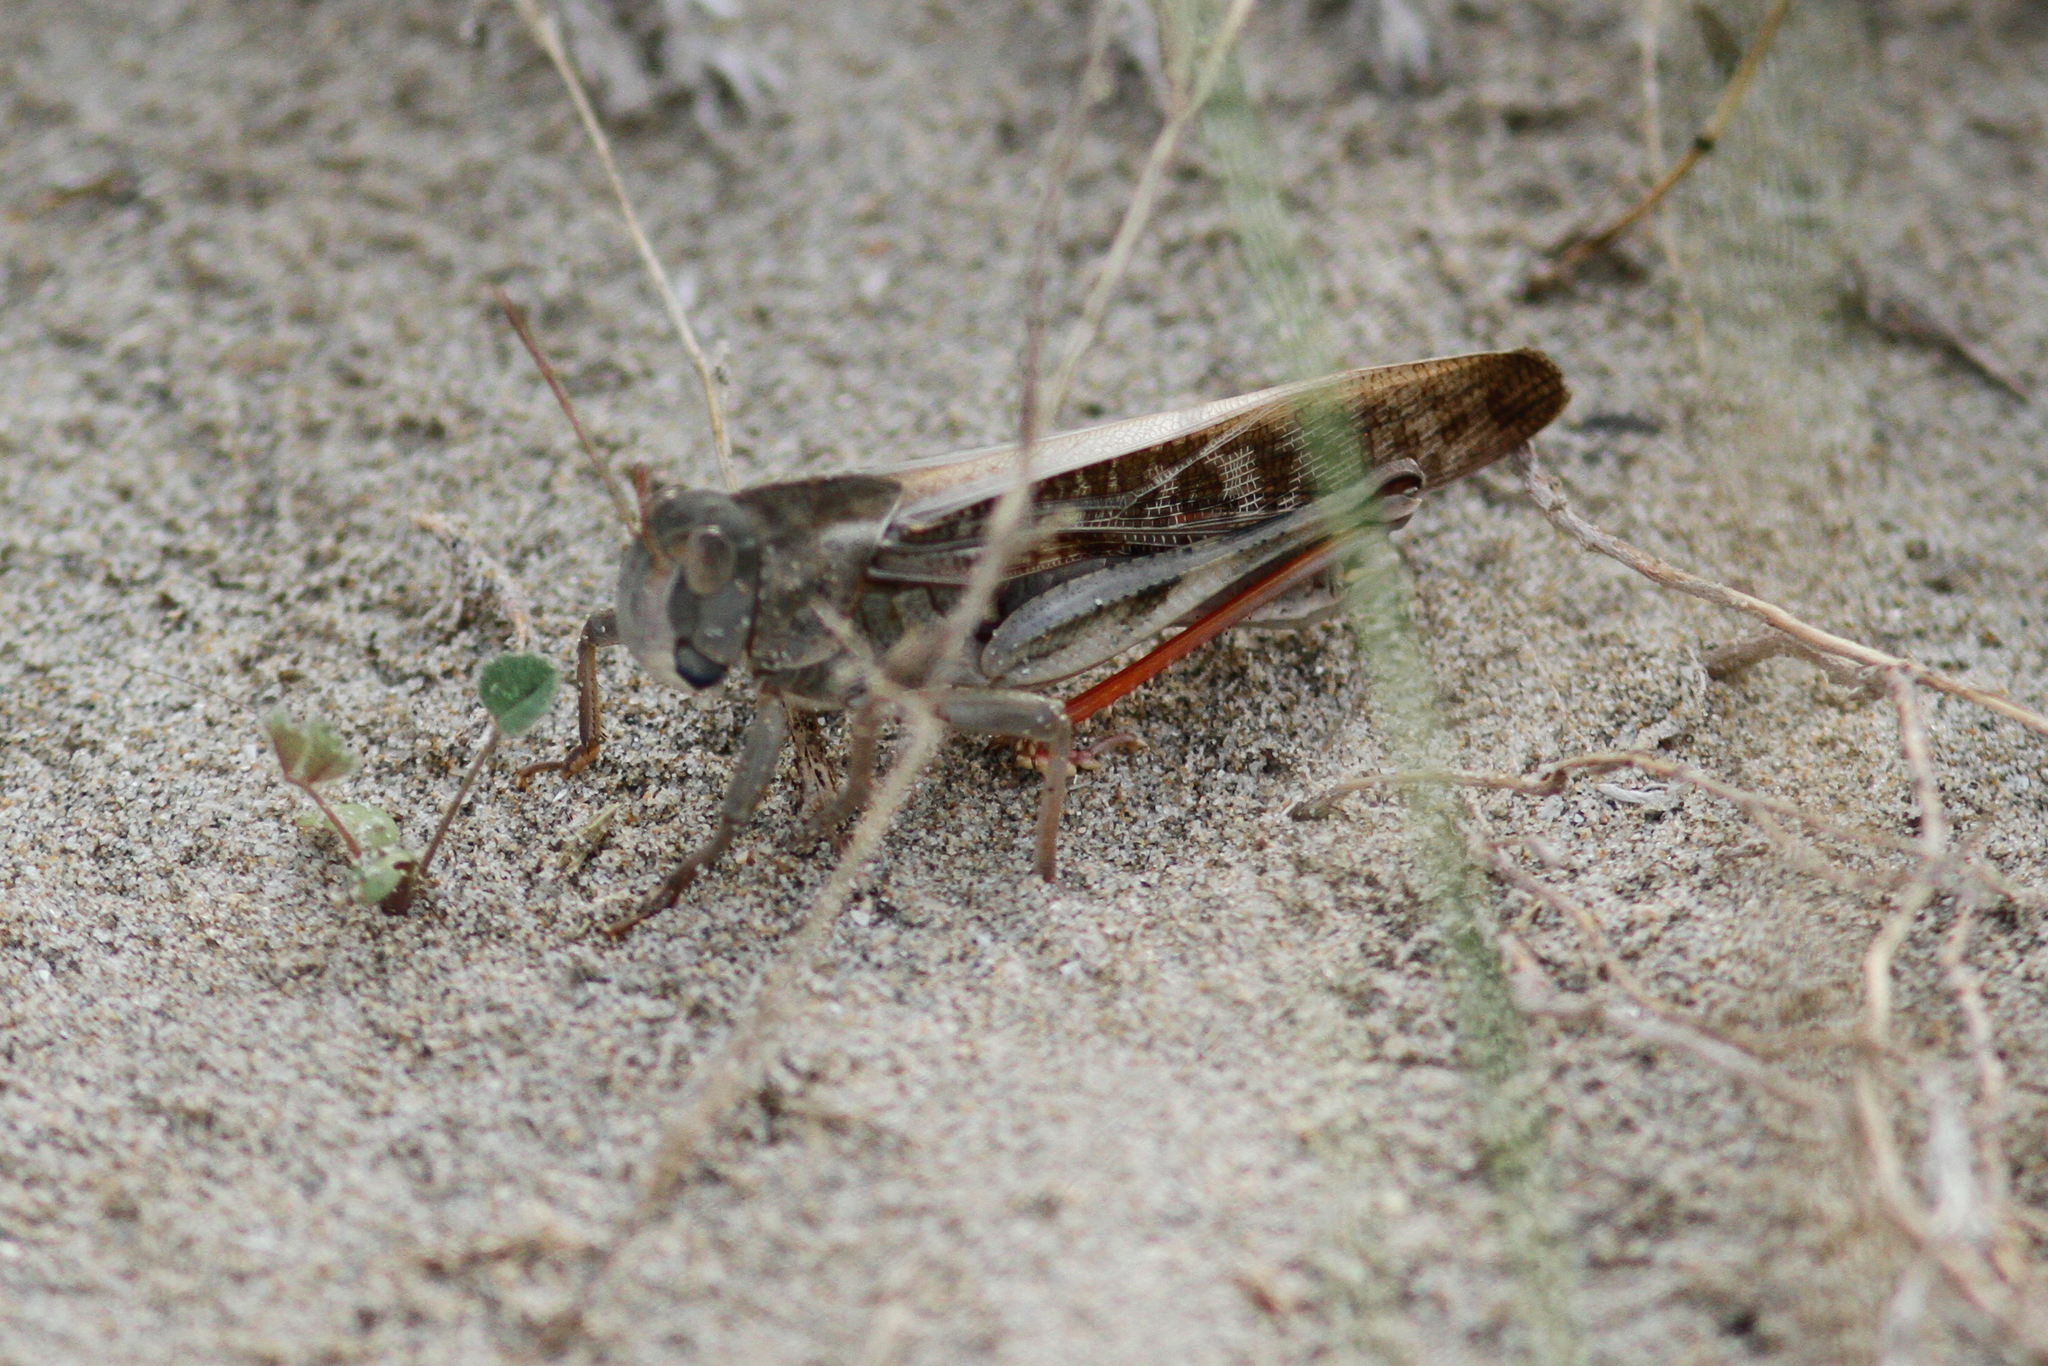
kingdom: Animalia
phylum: Arthropoda
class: Insecta
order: Orthoptera
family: Acrididae
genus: Locusta
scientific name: Locusta migratoria
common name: Migratory locust
